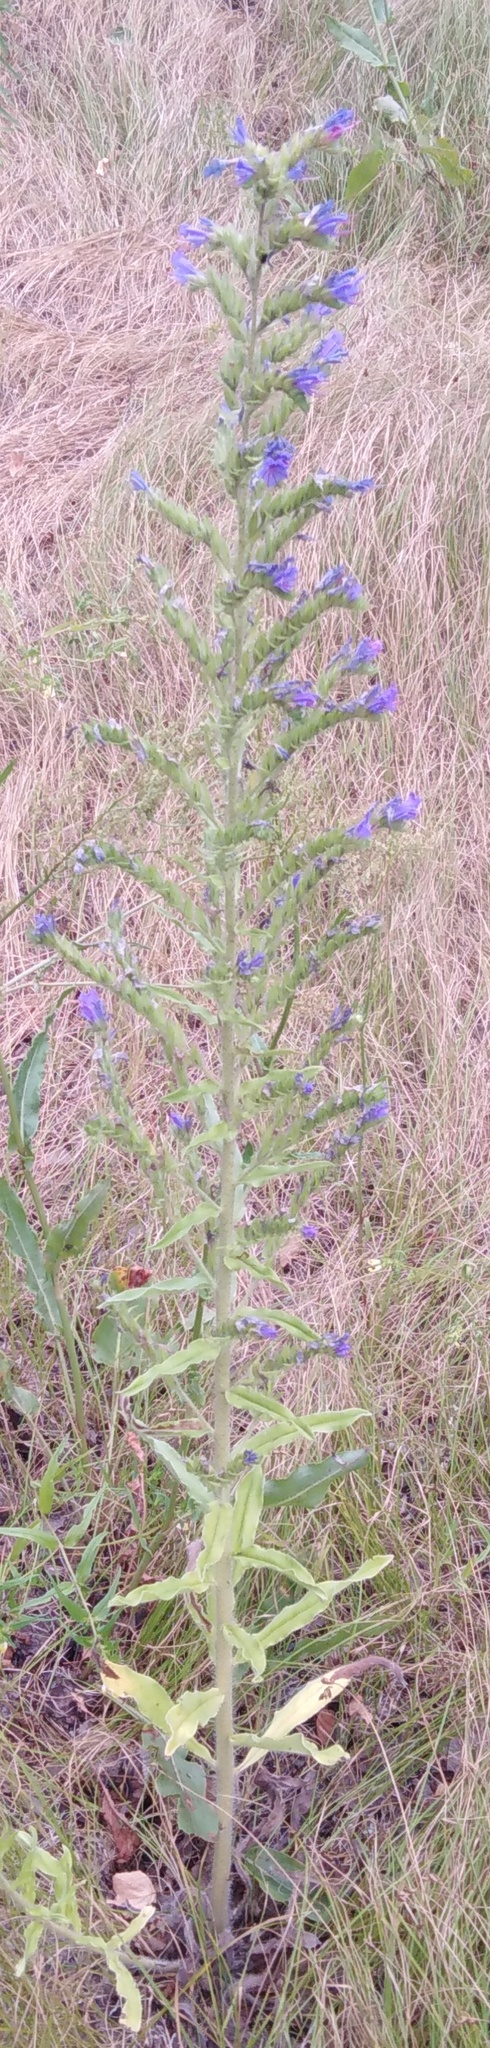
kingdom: Plantae
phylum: Tracheophyta
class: Magnoliopsida
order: Boraginales
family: Boraginaceae
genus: Echium
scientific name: Echium vulgare
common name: Common viper's bugloss
